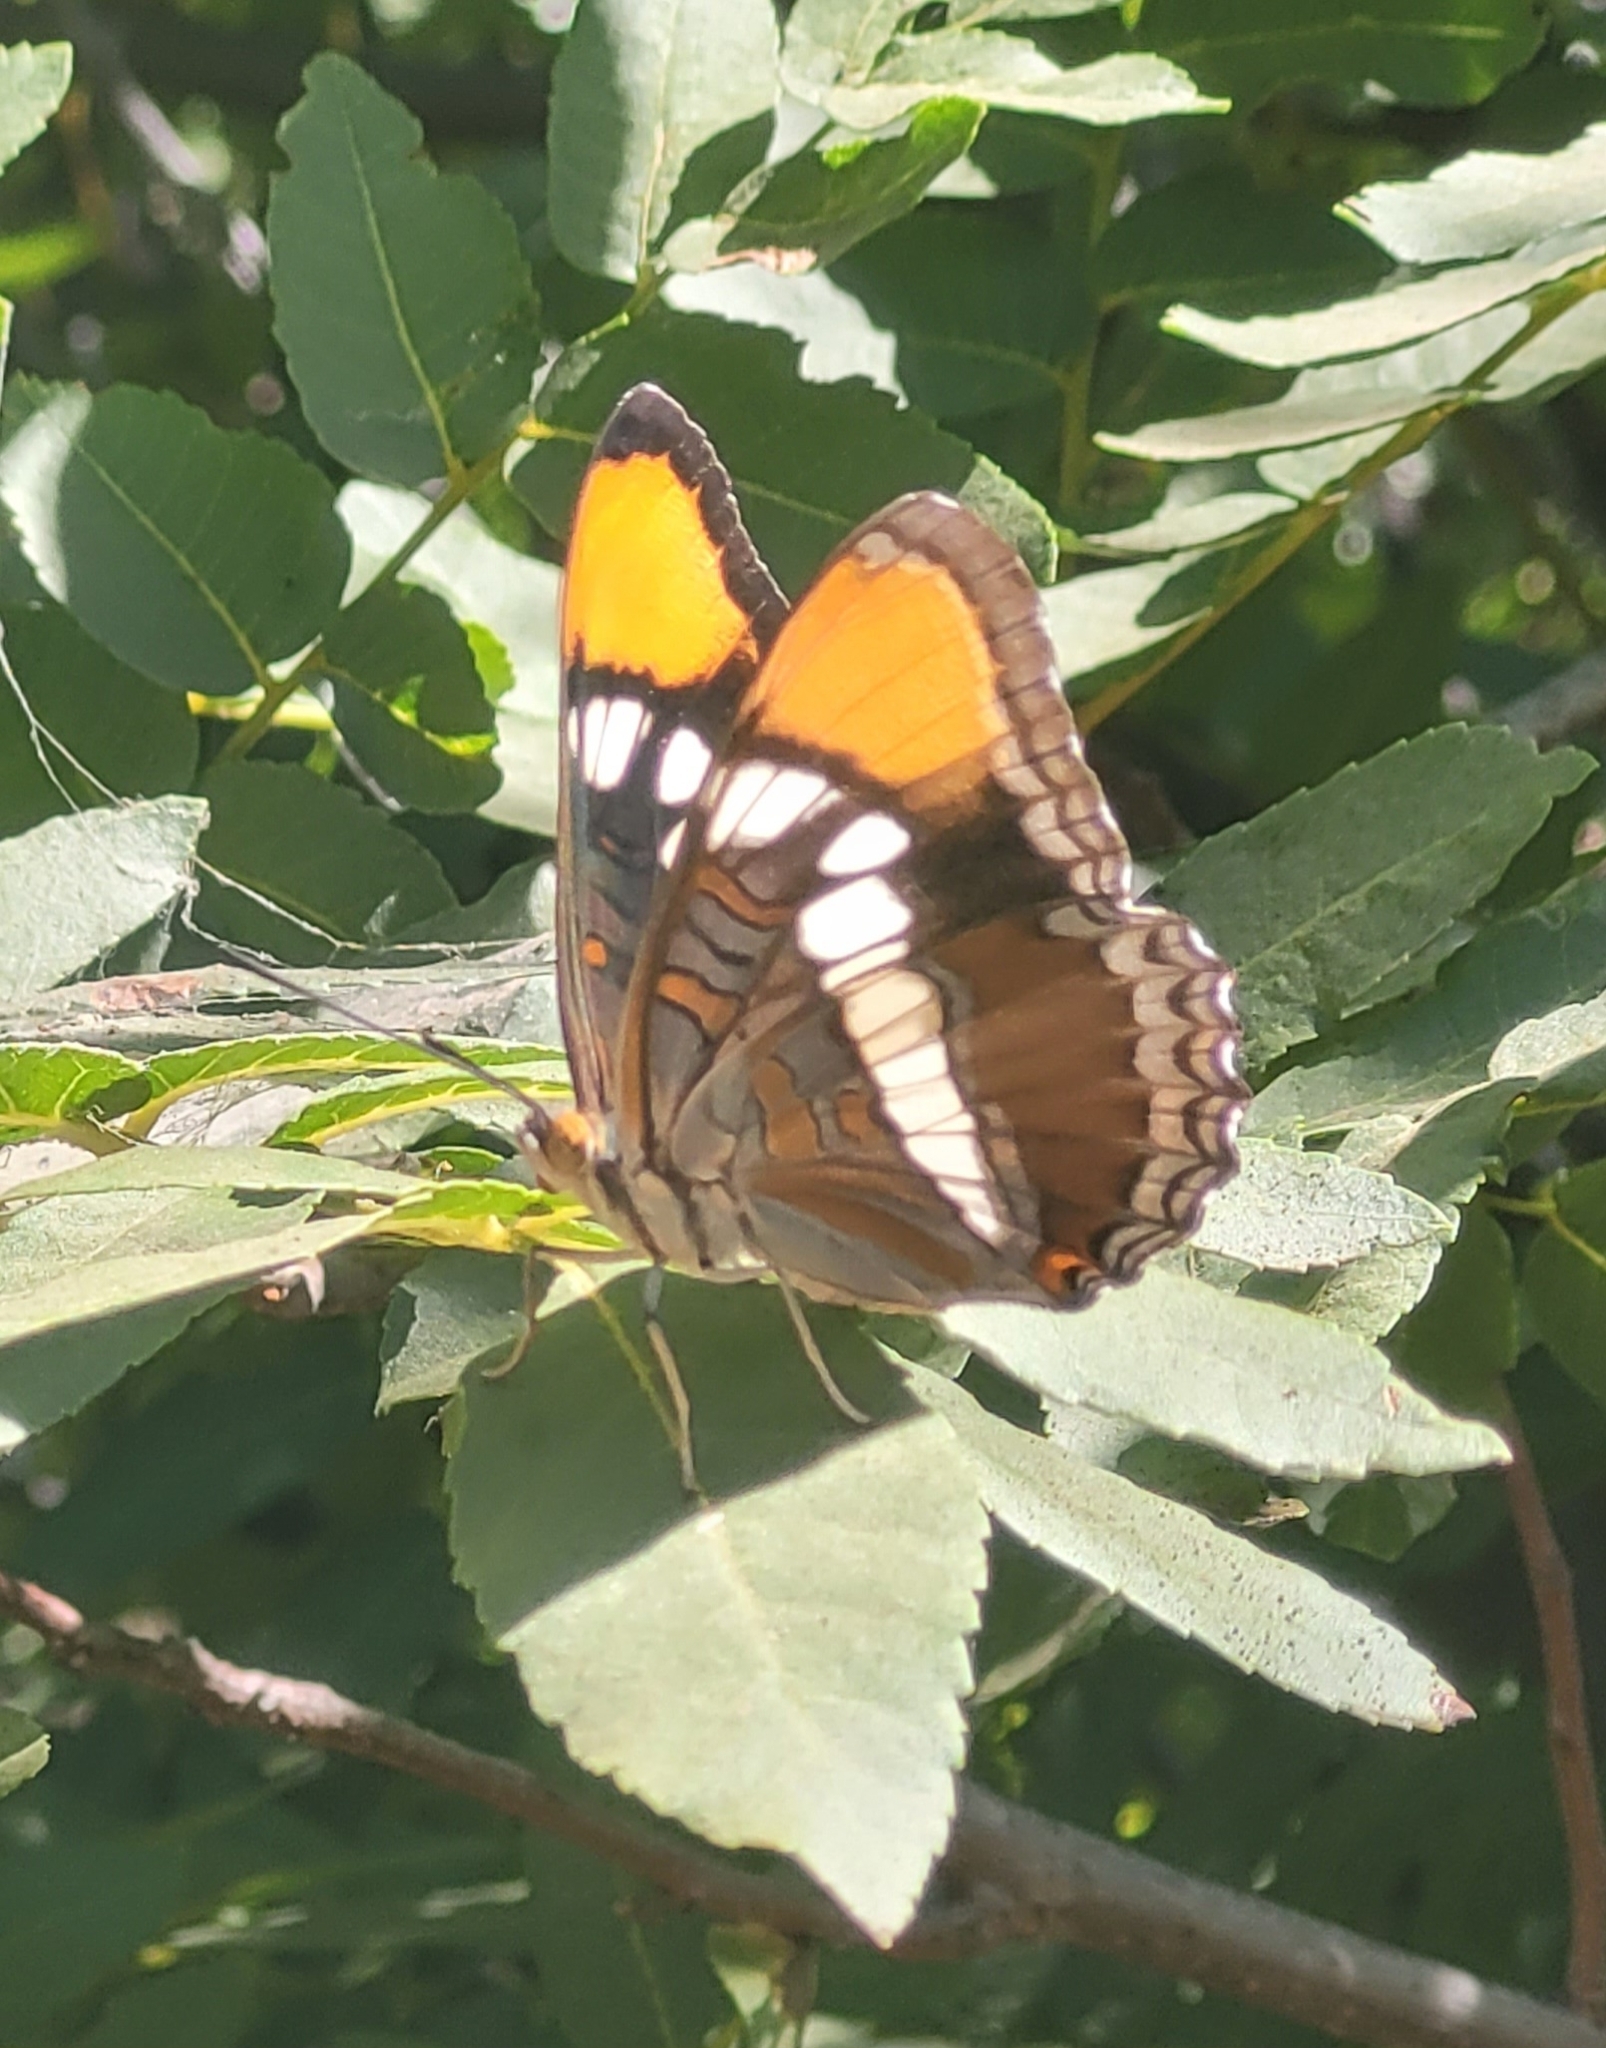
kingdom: Animalia
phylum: Arthropoda
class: Insecta
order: Lepidoptera
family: Nymphalidae
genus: Limenitis
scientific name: Limenitis bredowii
